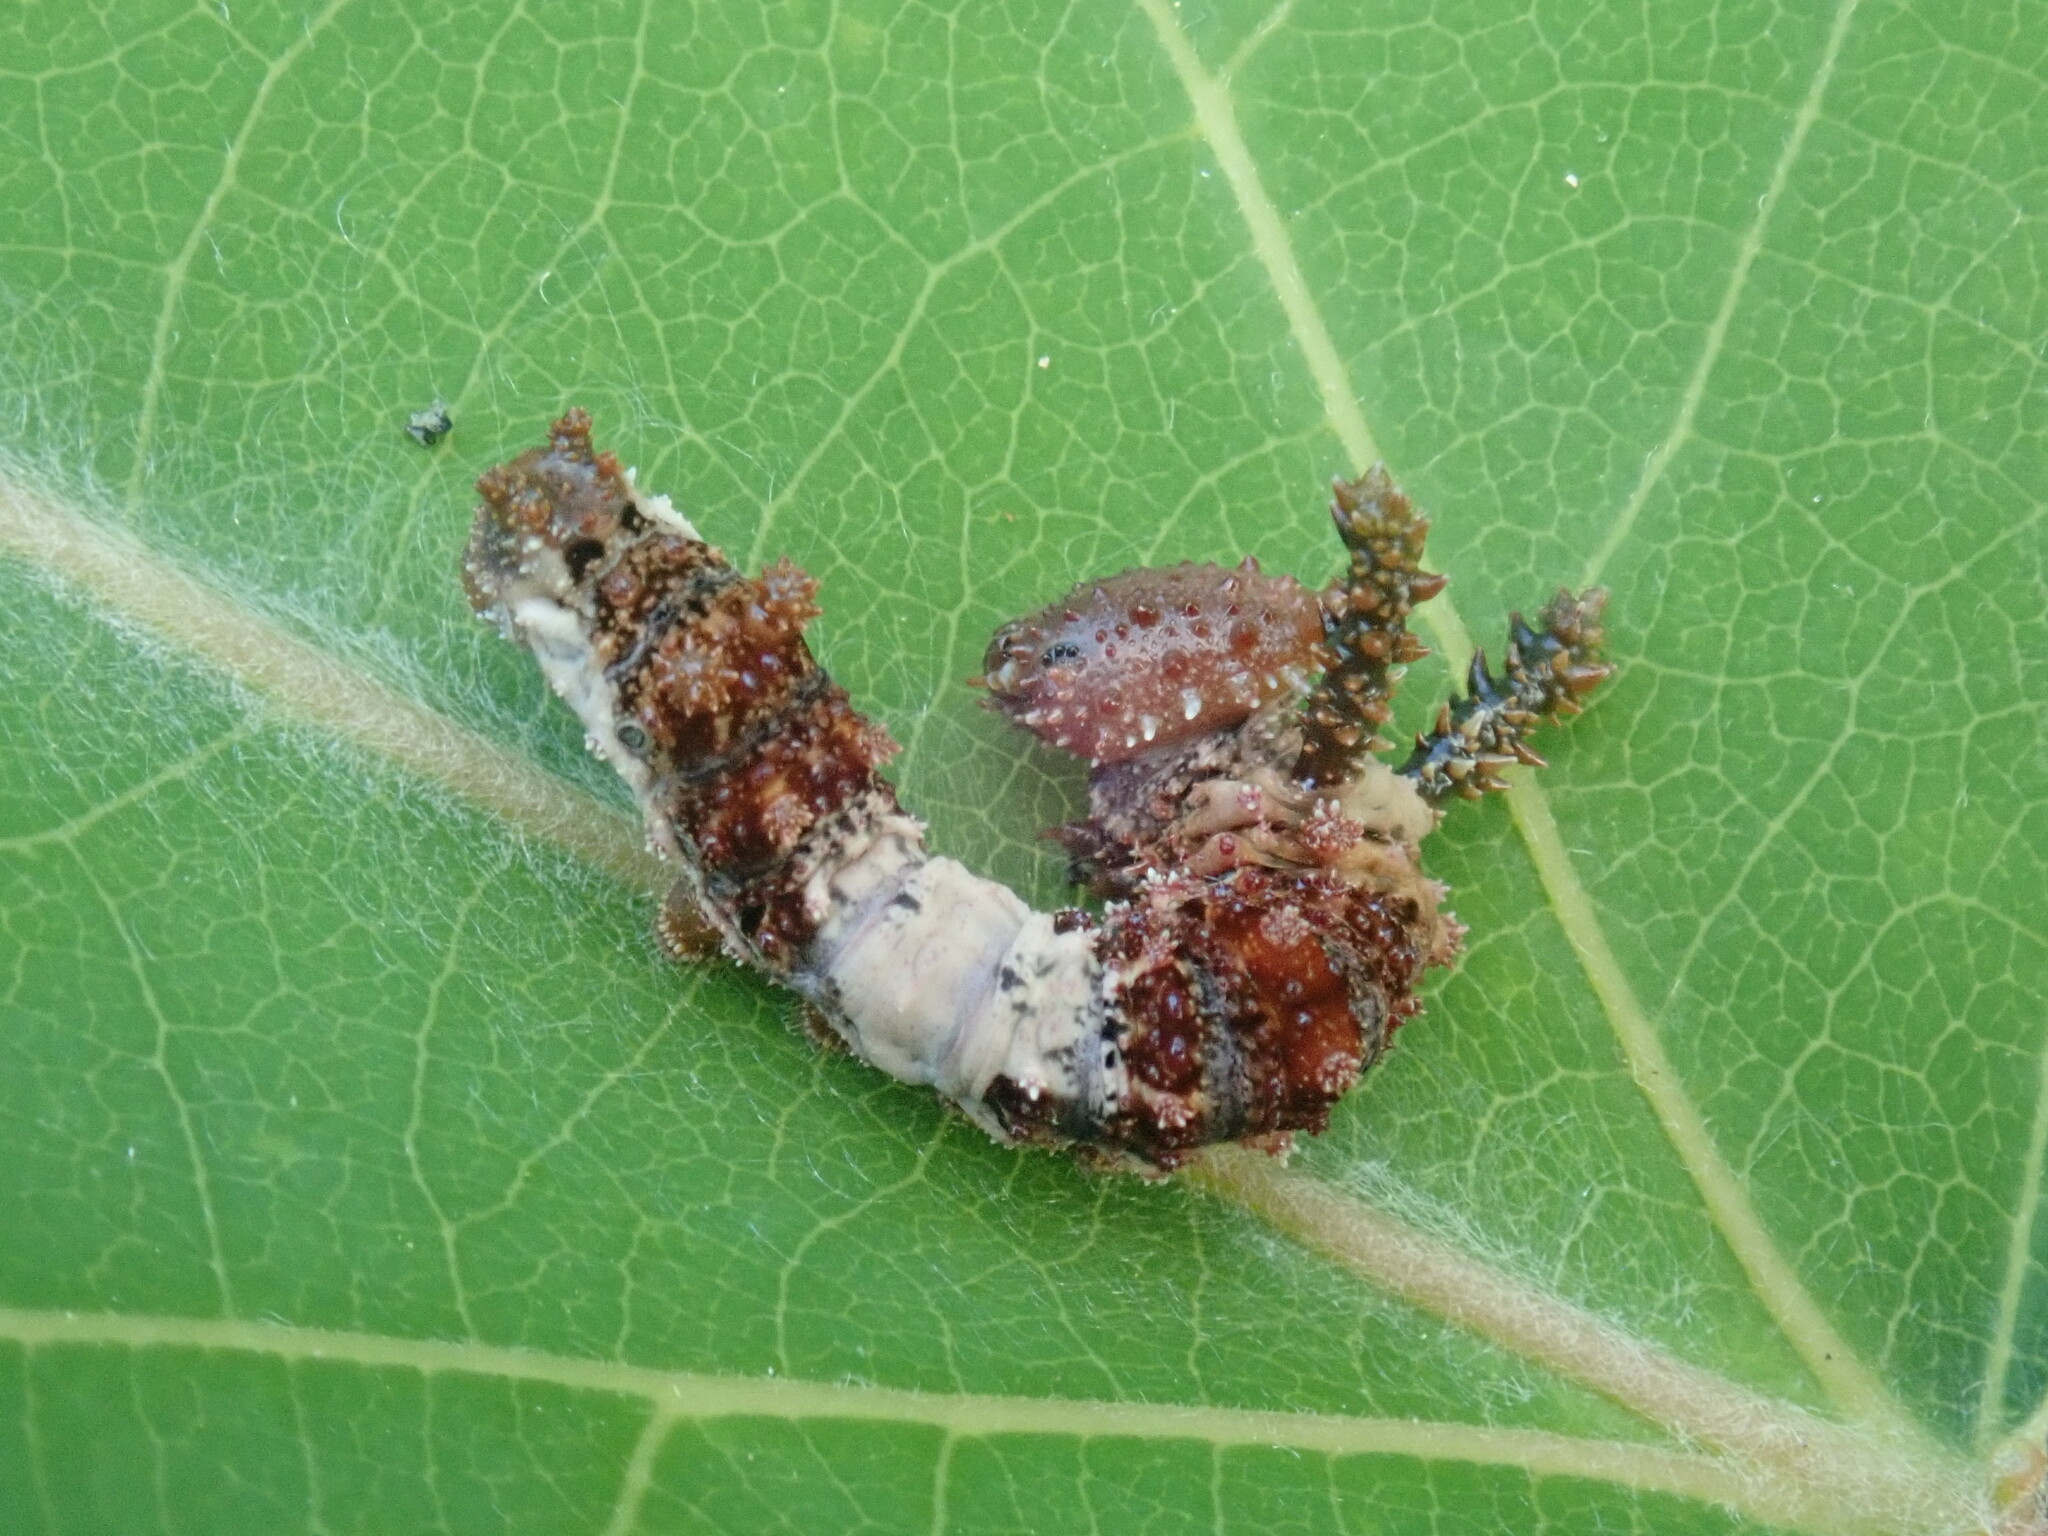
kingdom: Animalia
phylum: Arthropoda
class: Insecta
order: Lepidoptera
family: Nymphalidae
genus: Limenitis
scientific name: Limenitis archippus
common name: Viceroy
